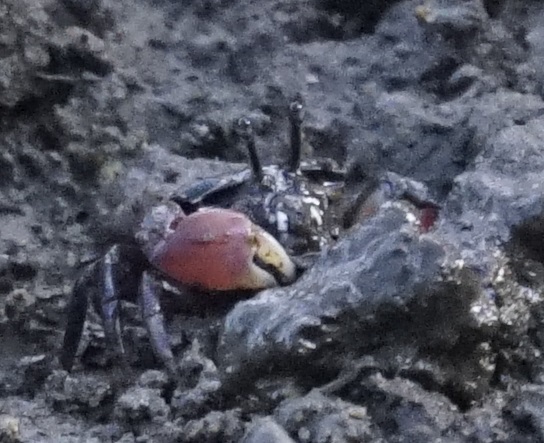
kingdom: Animalia
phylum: Arthropoda
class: Malacostraca
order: Decapoda
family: Heloeciidae
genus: Heloecius
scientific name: Heloecius cordiformis
